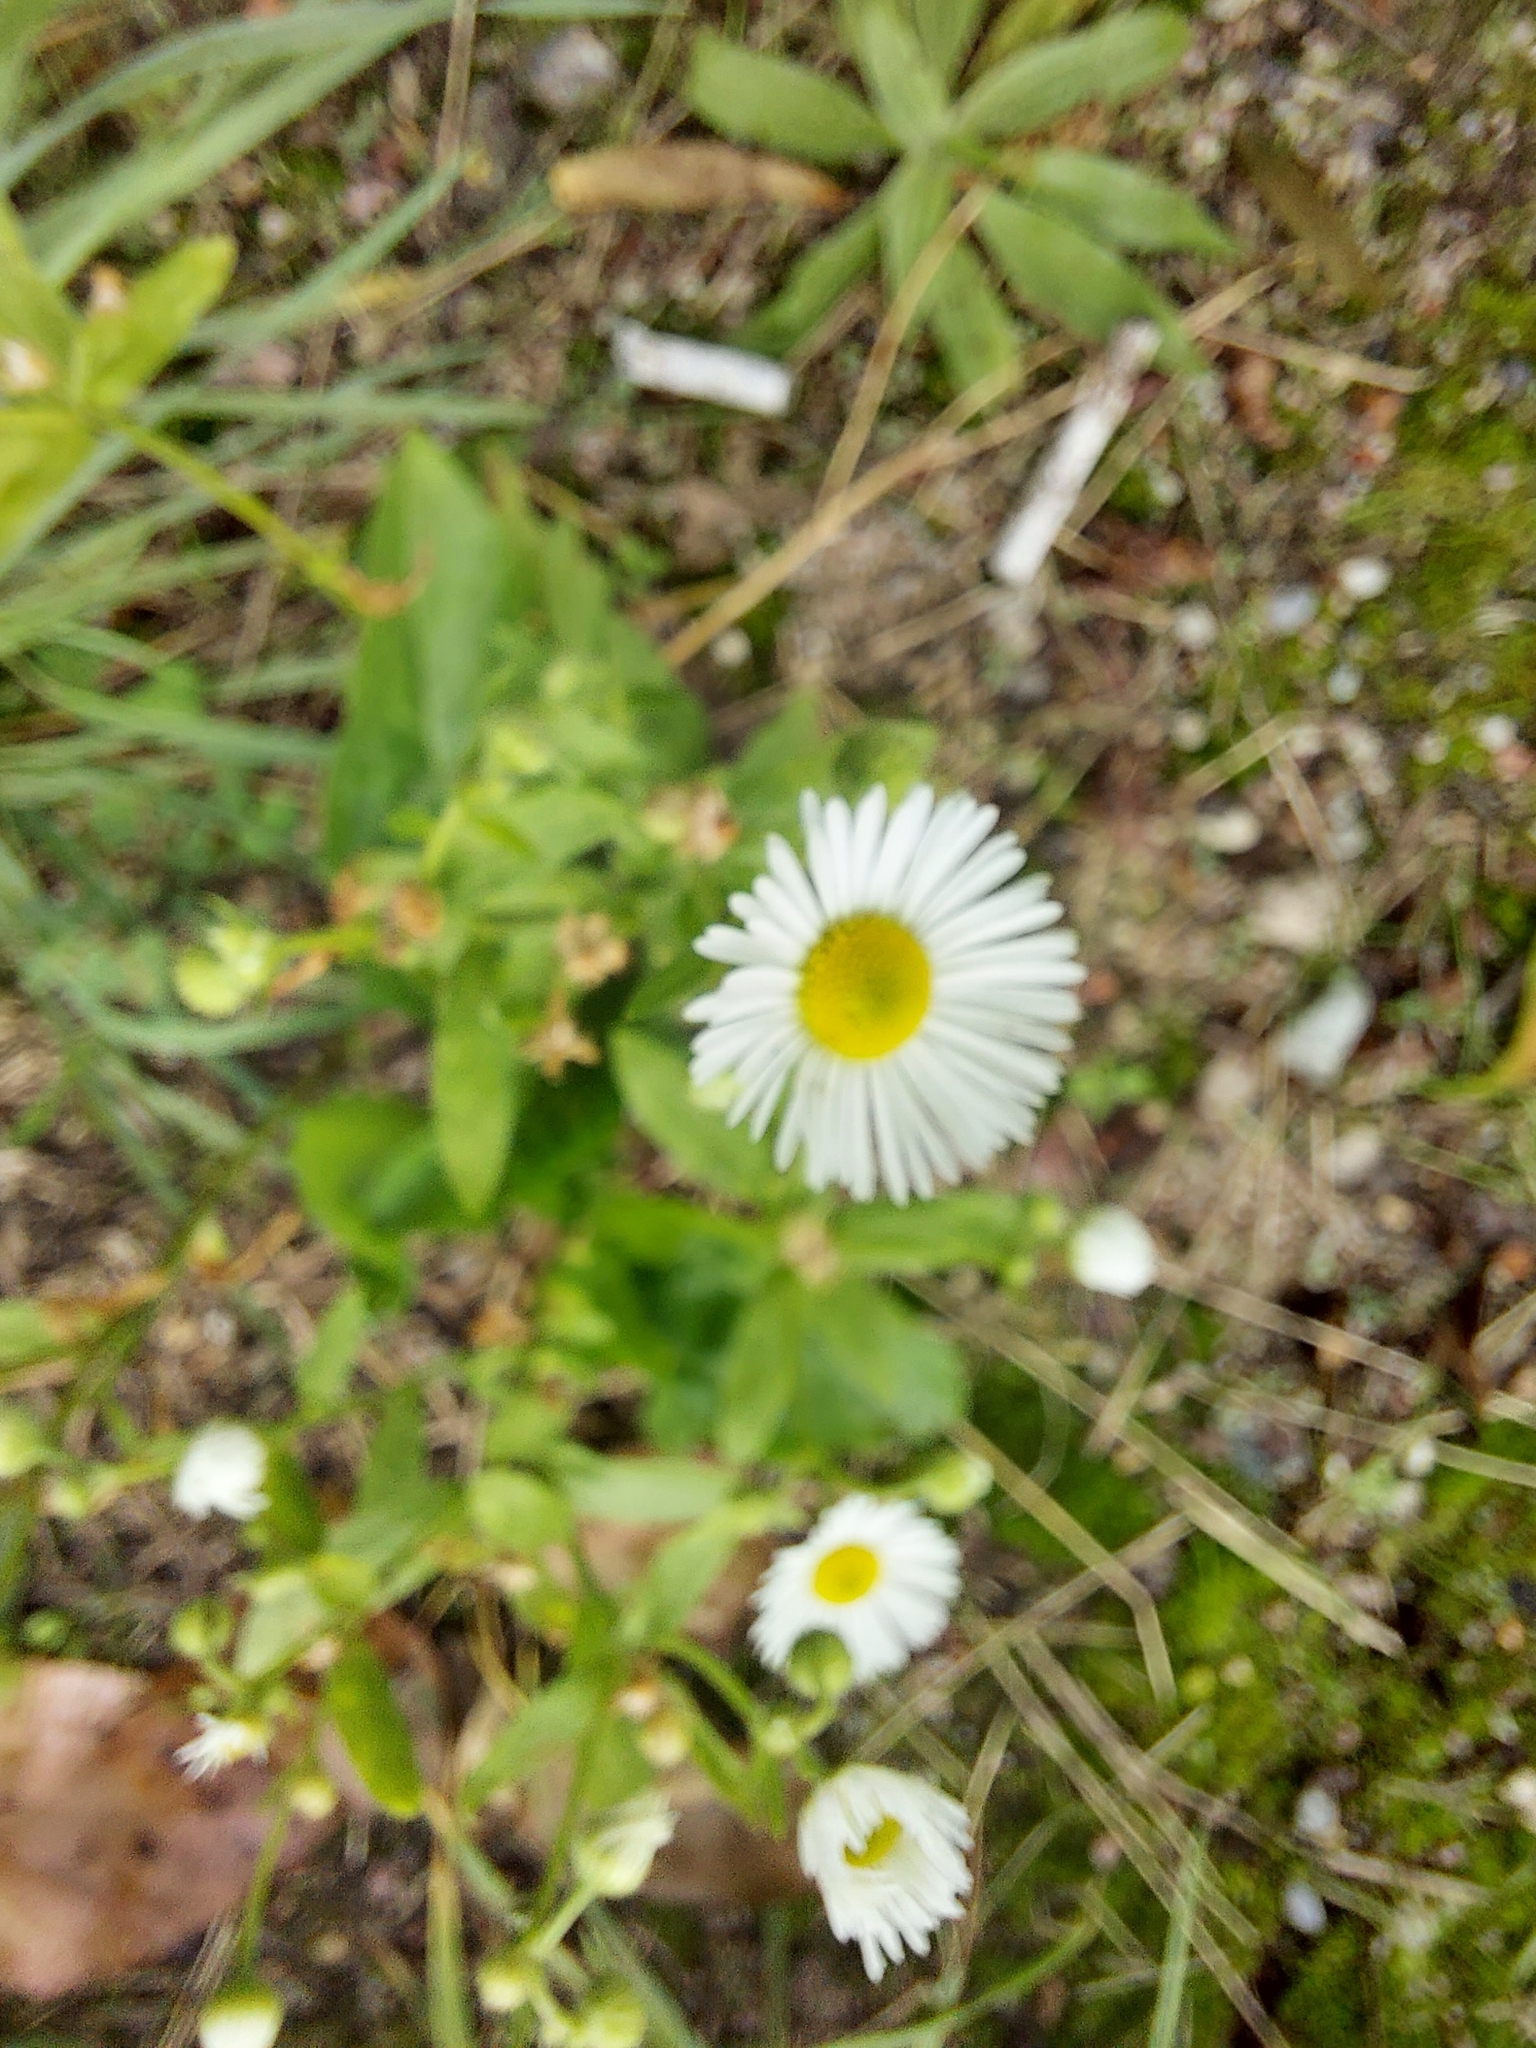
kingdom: Plantae
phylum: Tracheophyta
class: Magnoliopsida
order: Asterales
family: Asteraceae
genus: Erigeron
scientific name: Erigeron annuus
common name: Tall fleabane
